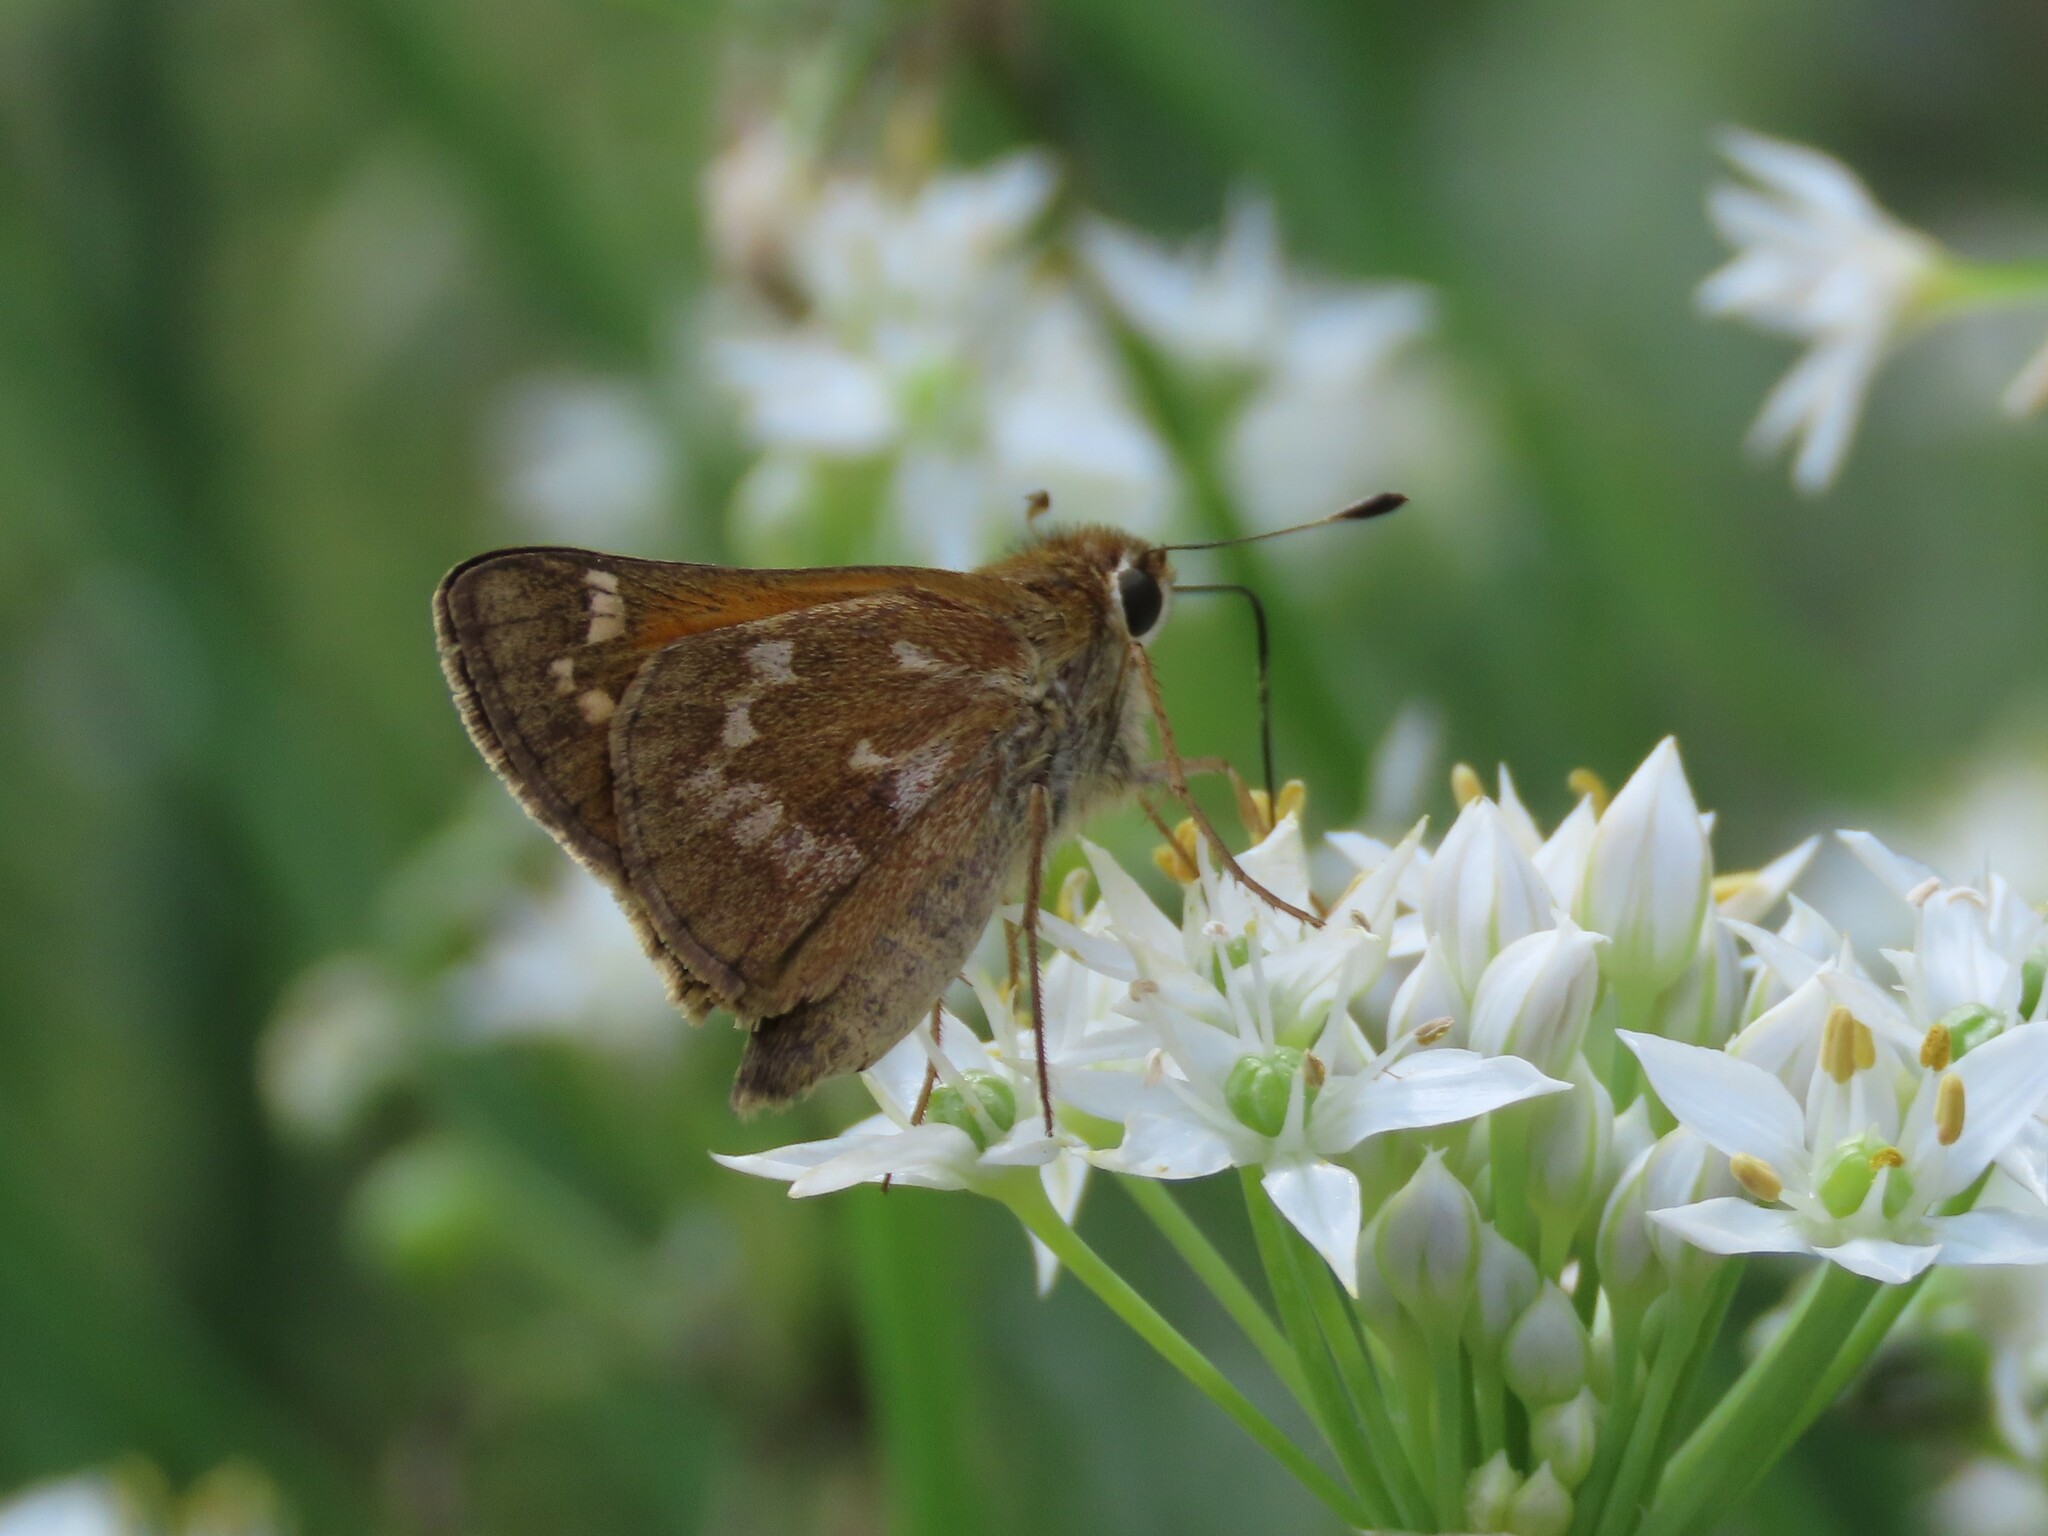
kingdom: Animalia
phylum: Arthropoda
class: Insecta
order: Lepidoptera
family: Hesperiidae
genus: Atalopedes
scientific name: Atalopedes
